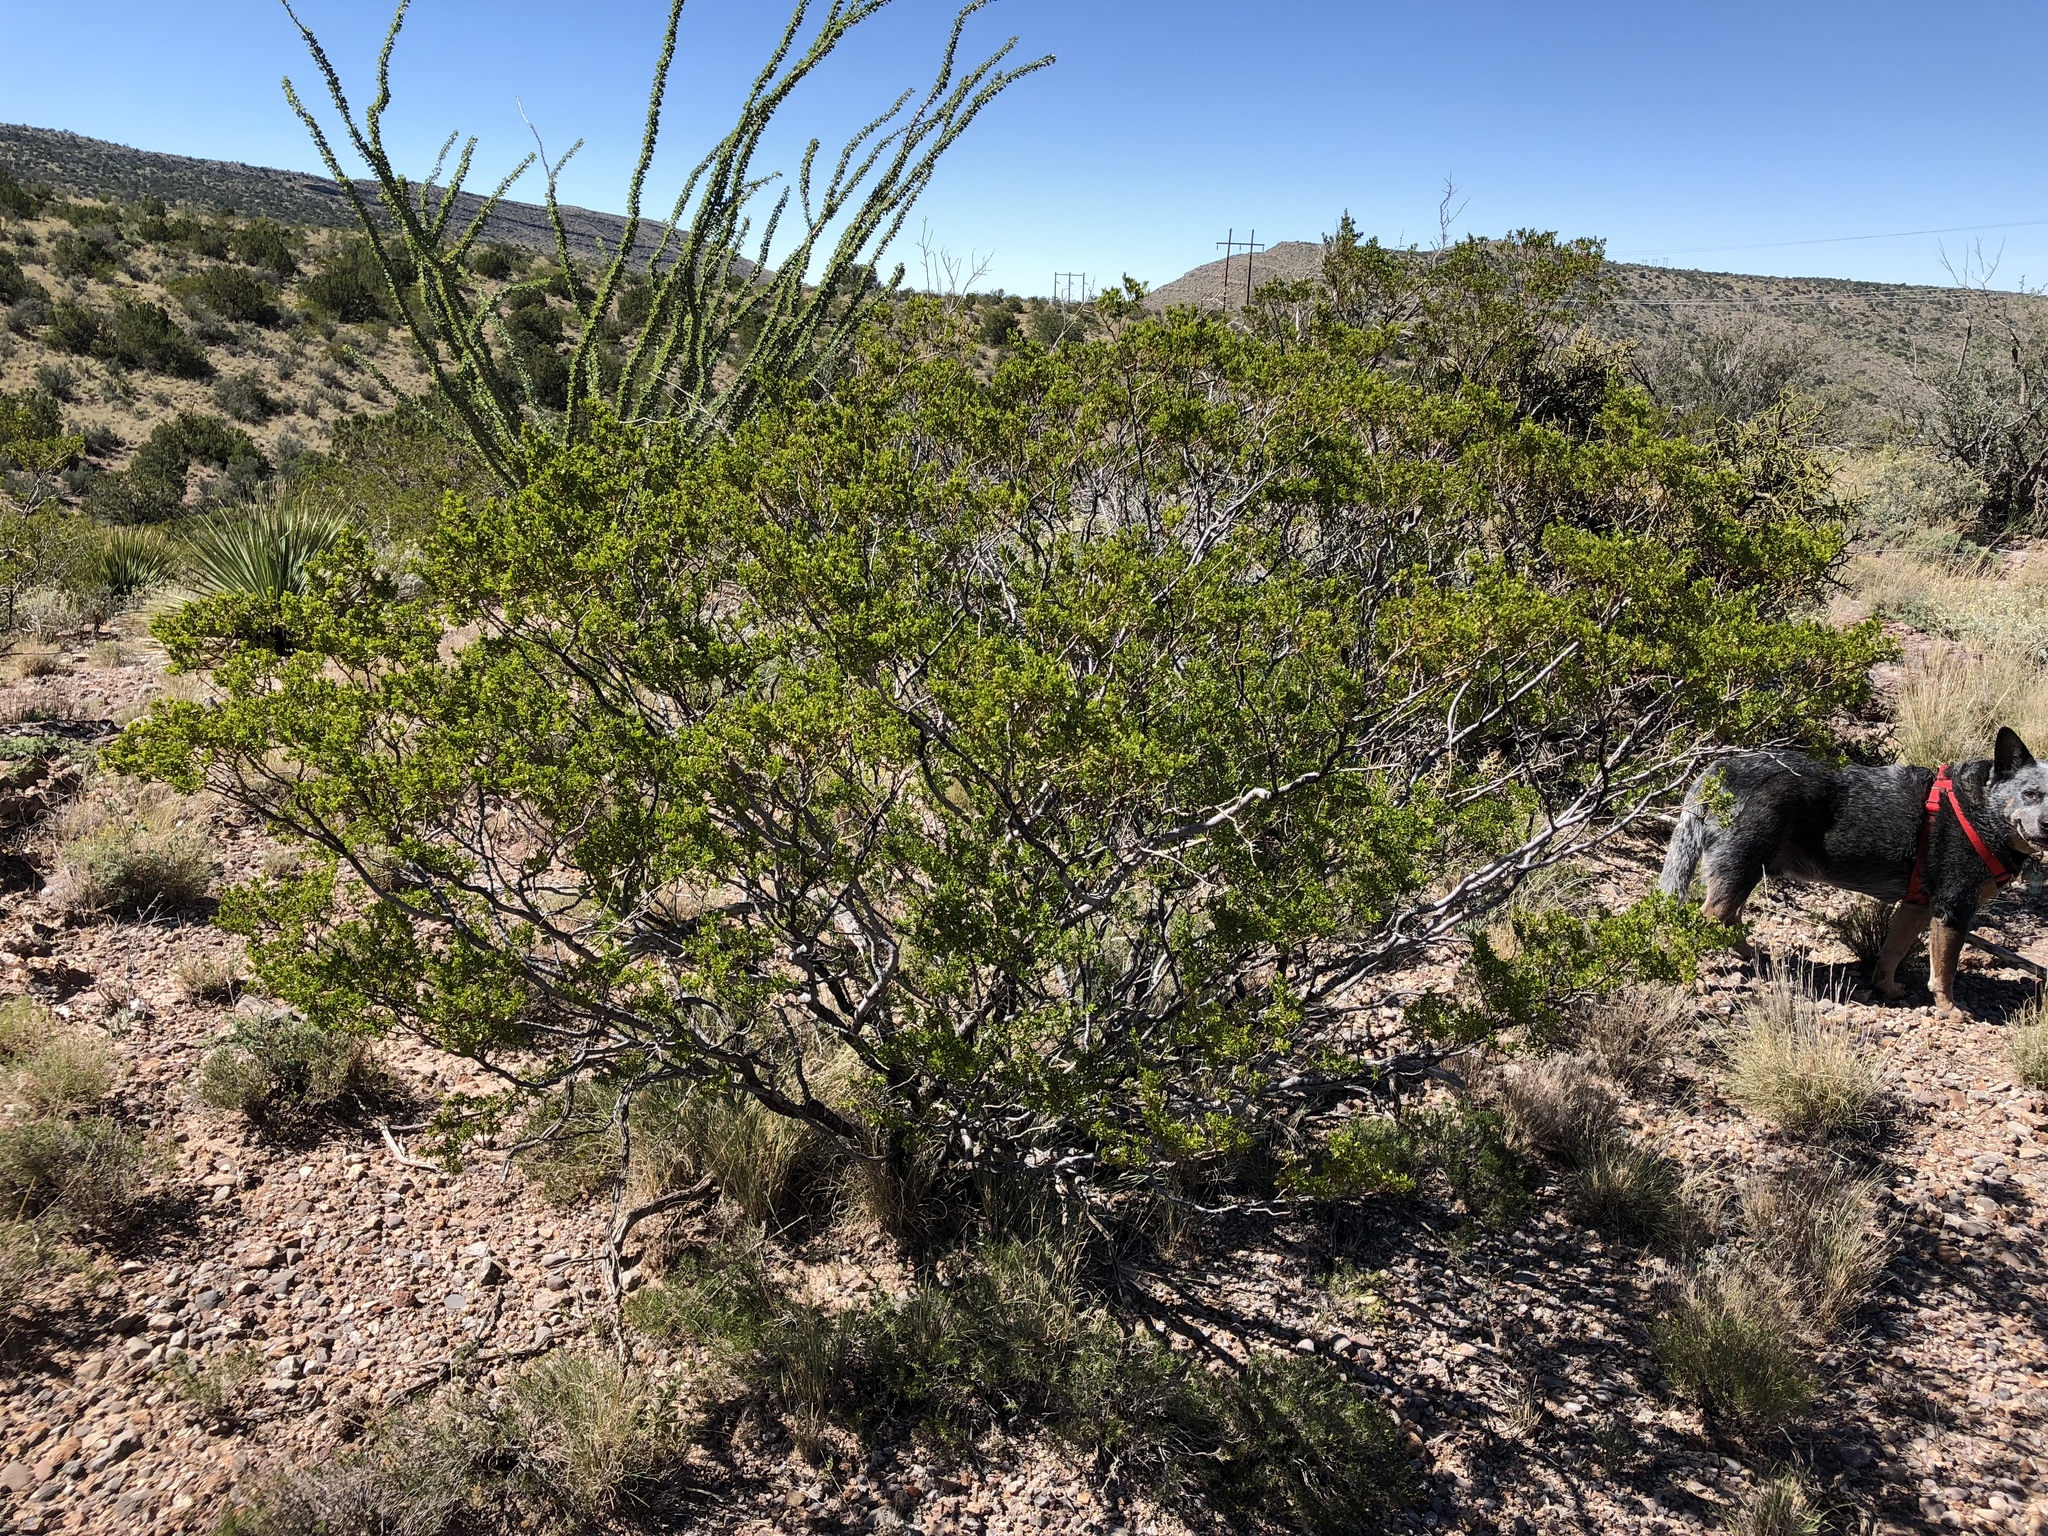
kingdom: Plantae
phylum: Tracheophyta
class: Magnoliopsida
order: Zygophyllales
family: Zygophyllaceae
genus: Larrea
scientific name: Larrea tridentata
